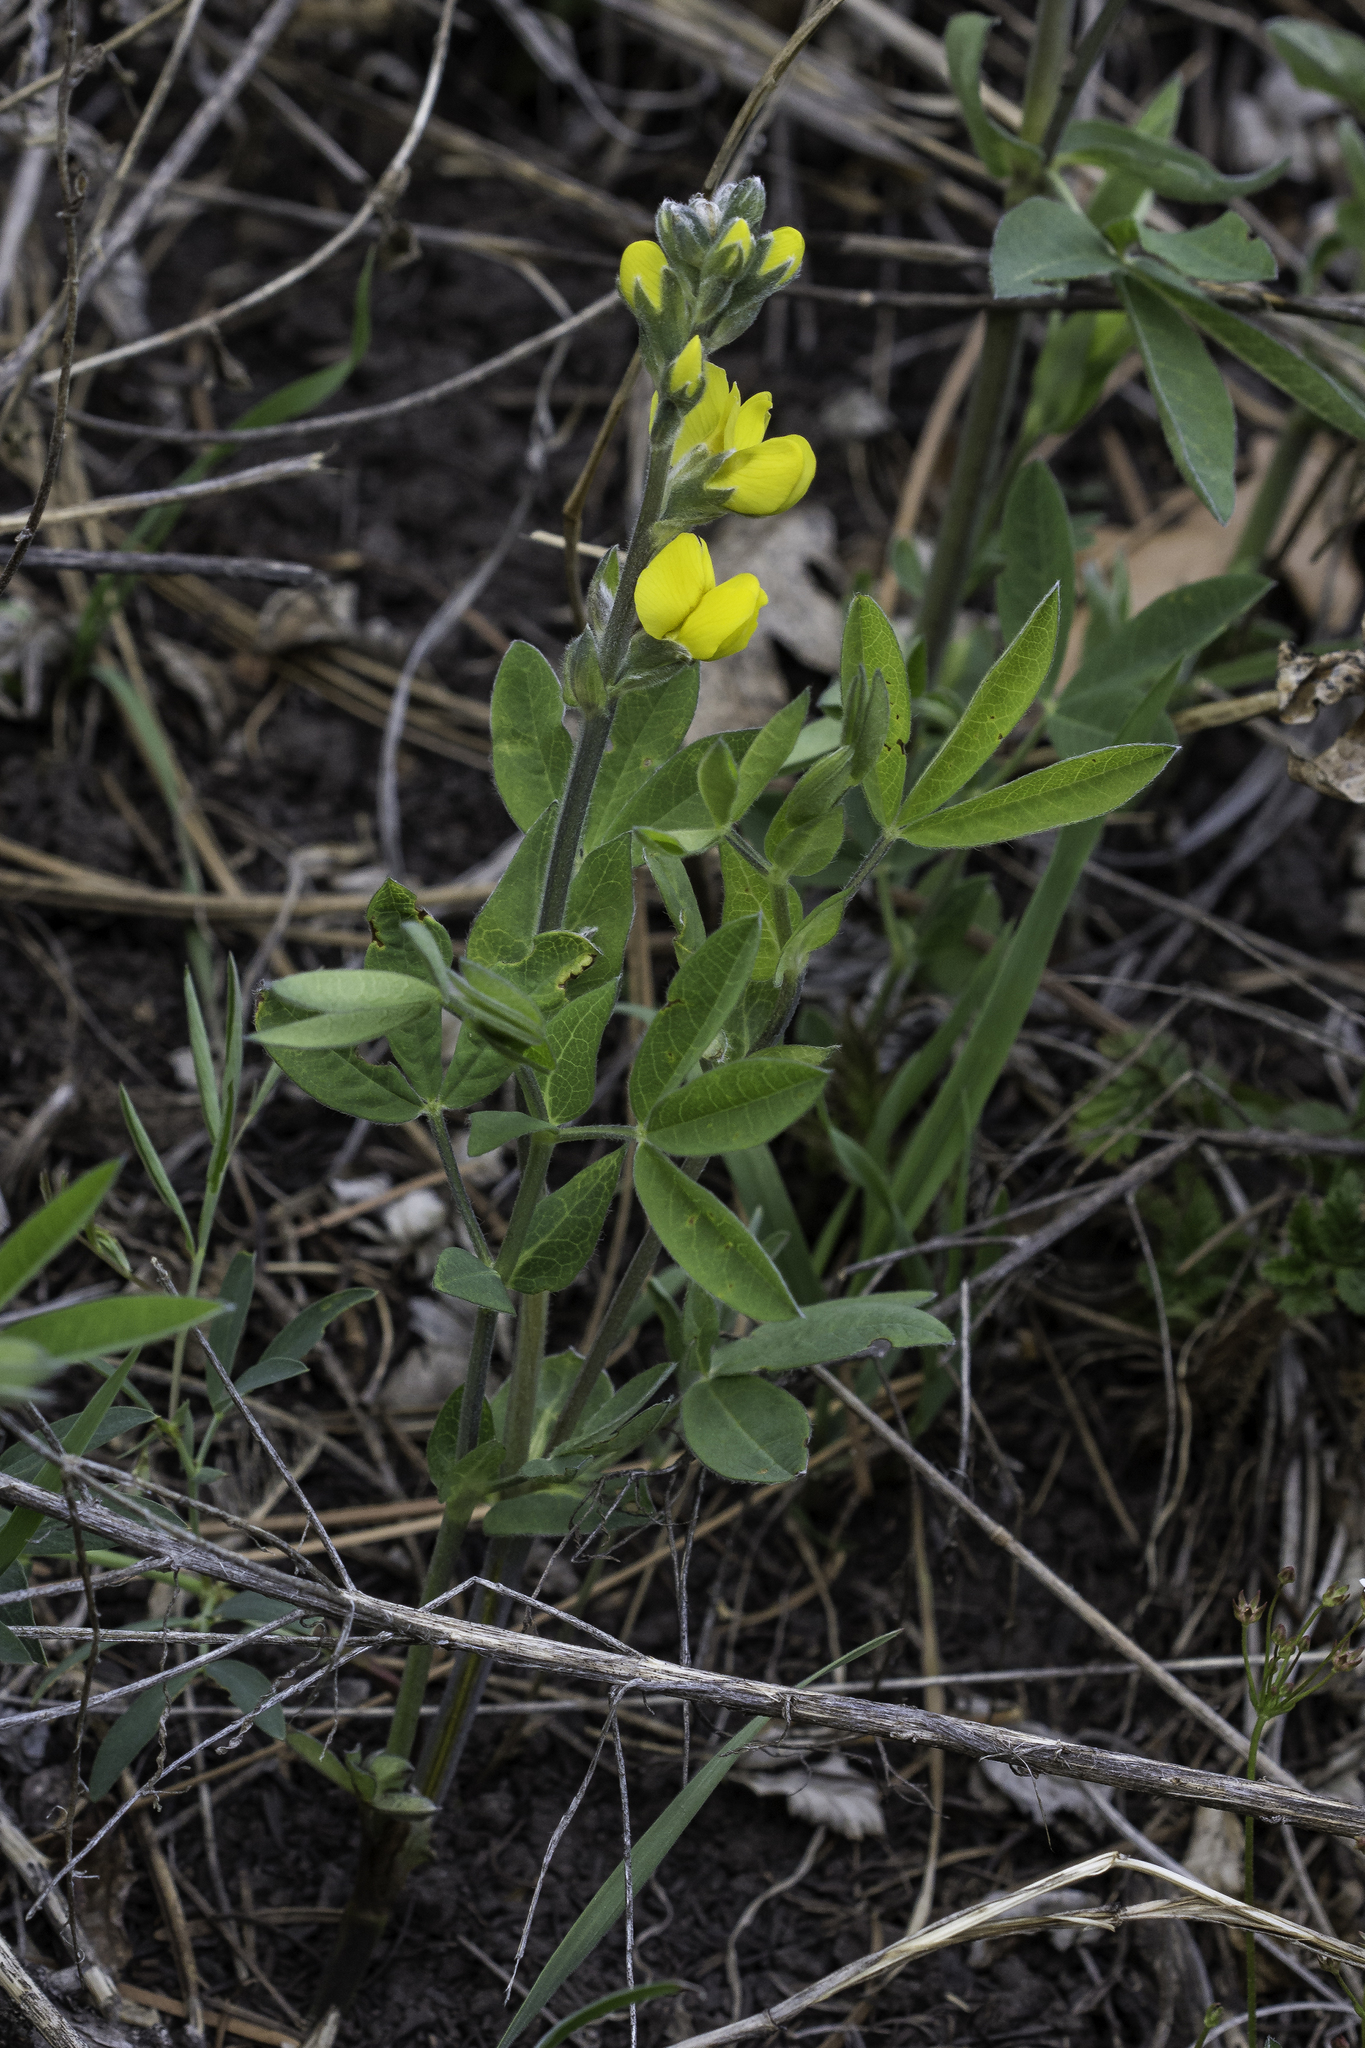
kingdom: Plantae
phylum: Tracheophyta
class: Magnoliopsida
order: Fabales
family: Fabaceae
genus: Thermopsis
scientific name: Thermopsis montana
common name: False lupin
